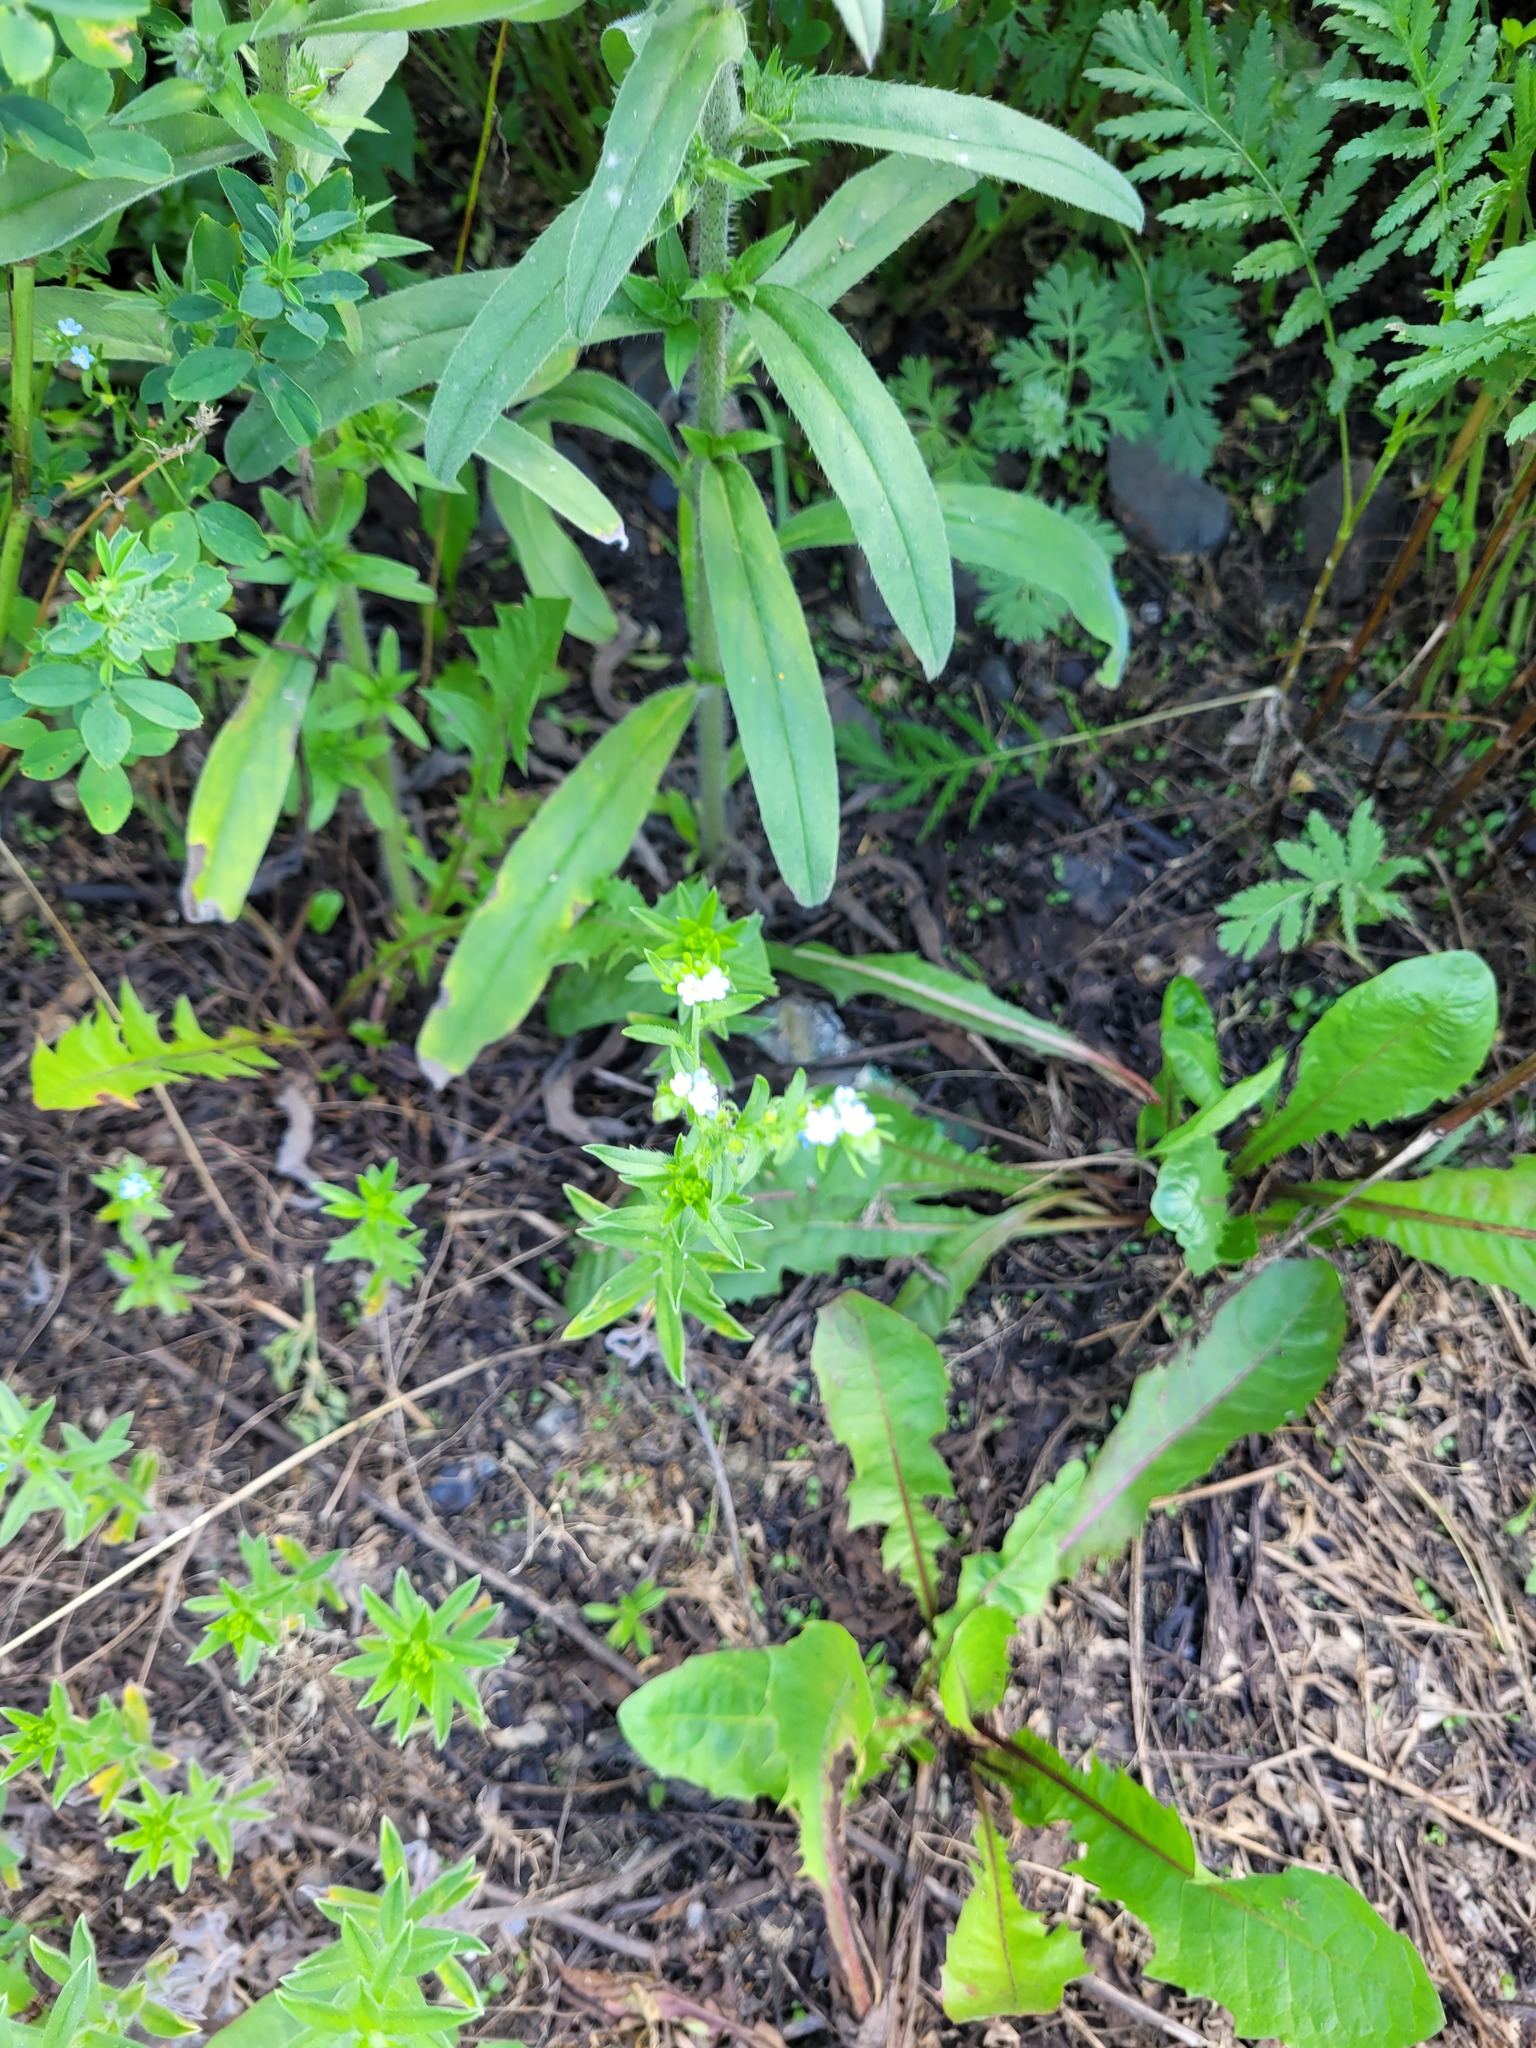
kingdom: Plantae
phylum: Tracheophyta
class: Magnoliopsida
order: Boraginales
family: Boraginaceae
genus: Lappula
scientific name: Lappula squarrosa
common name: European stickseed
